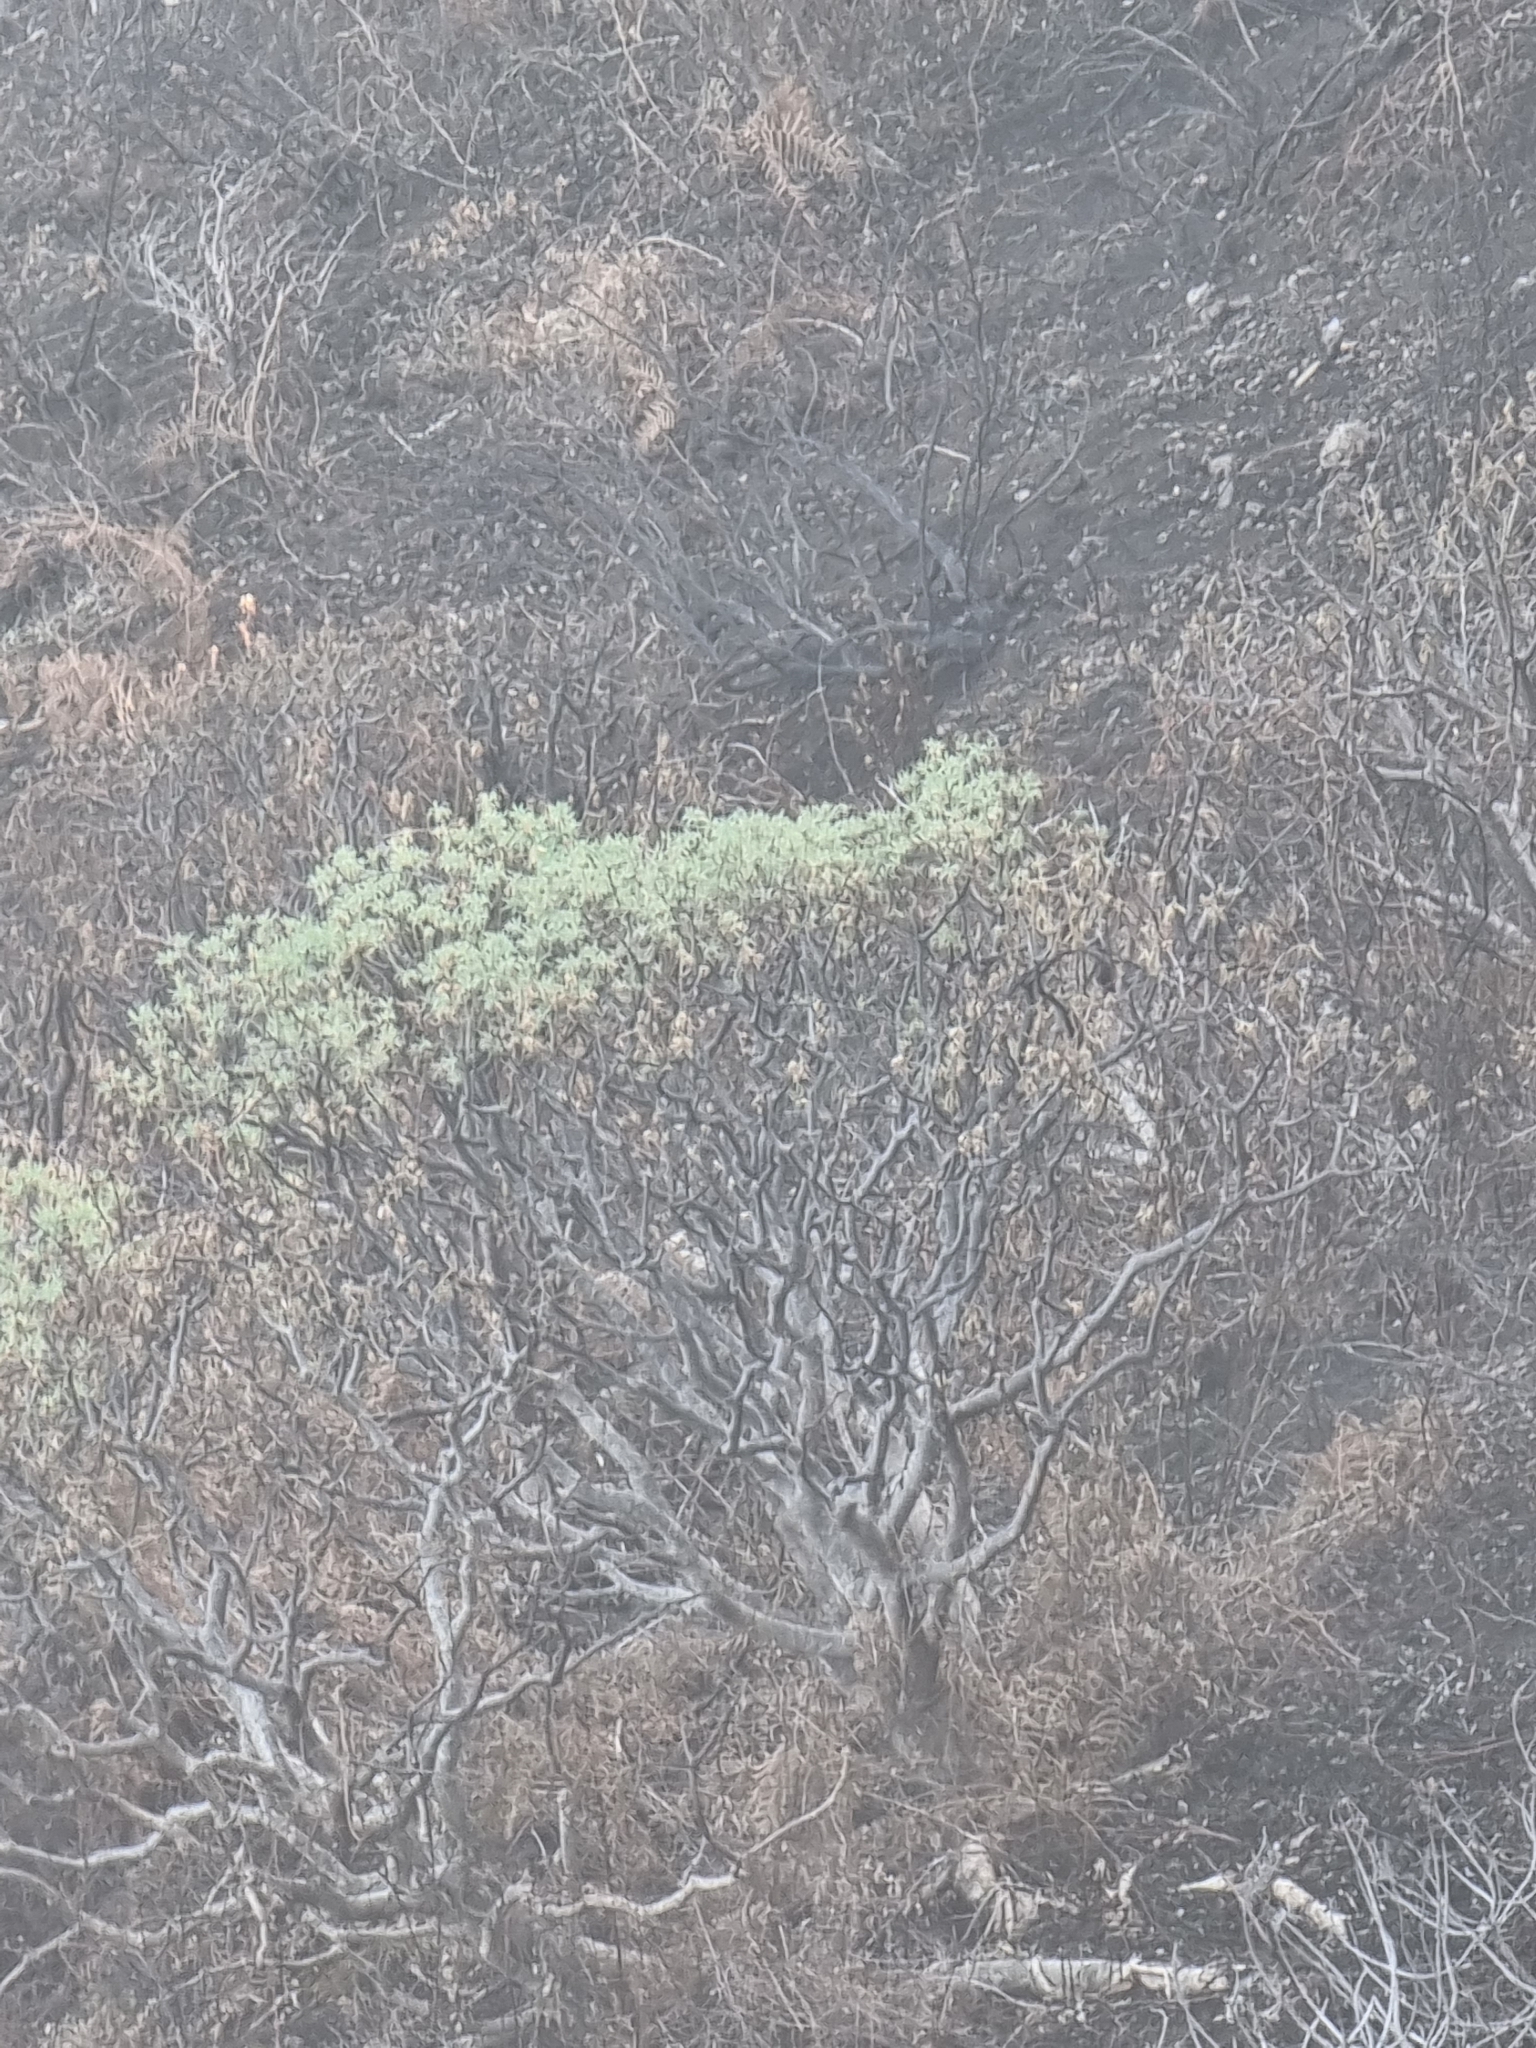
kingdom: Plantae
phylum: Tracheophyta
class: Magnoliopsida
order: Malpighiales
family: Euphorbiaceae
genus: Euphorbia
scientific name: Euphorbia piscatoria
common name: Fish-stunning spurge
